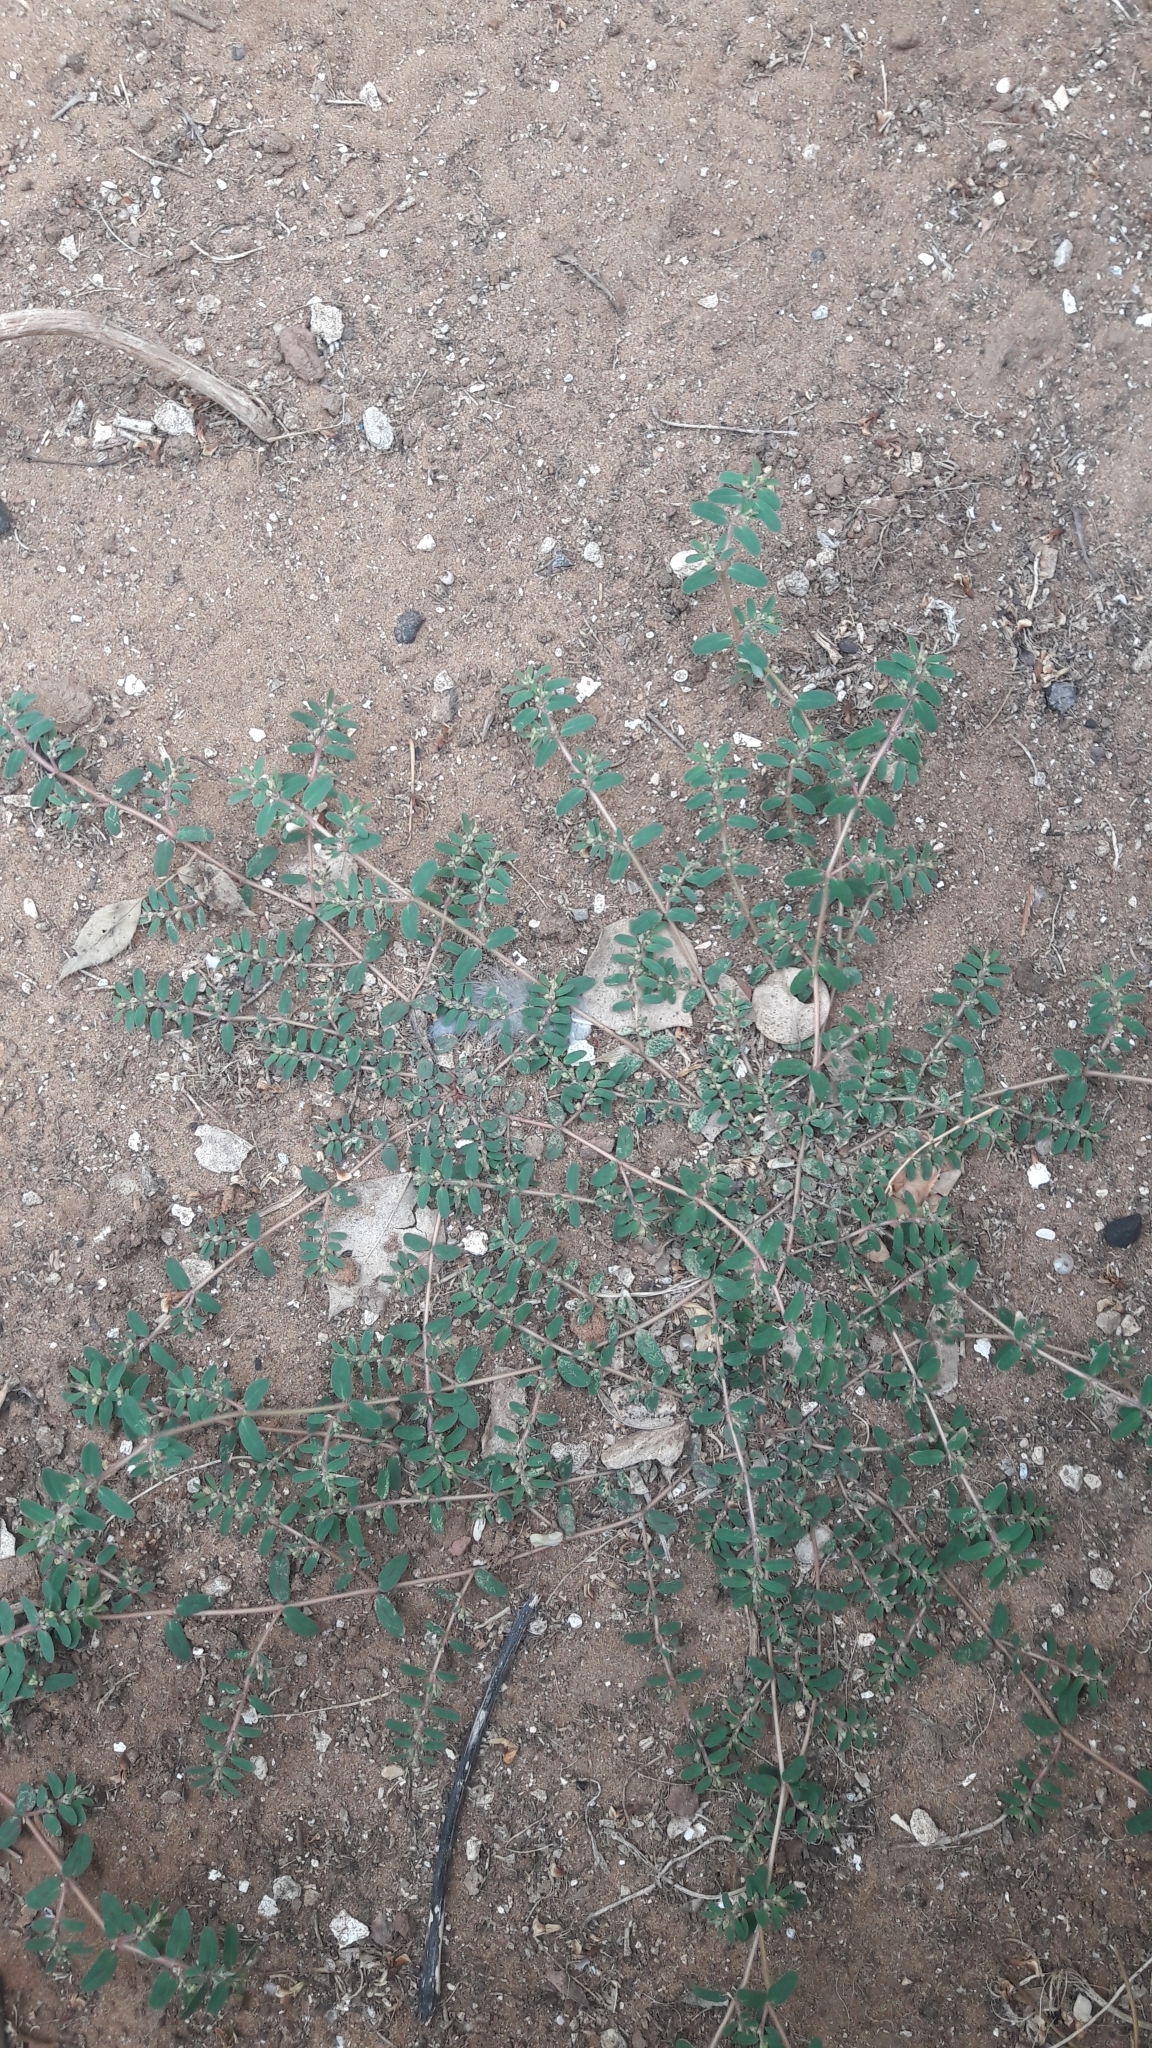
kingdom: Plantae
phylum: Tracheophyta
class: Magnoliopsida
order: Malpighiales
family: Euphorbiaceae
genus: Euphorbia
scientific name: Euphorbia maculata
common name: Spotted spurge
